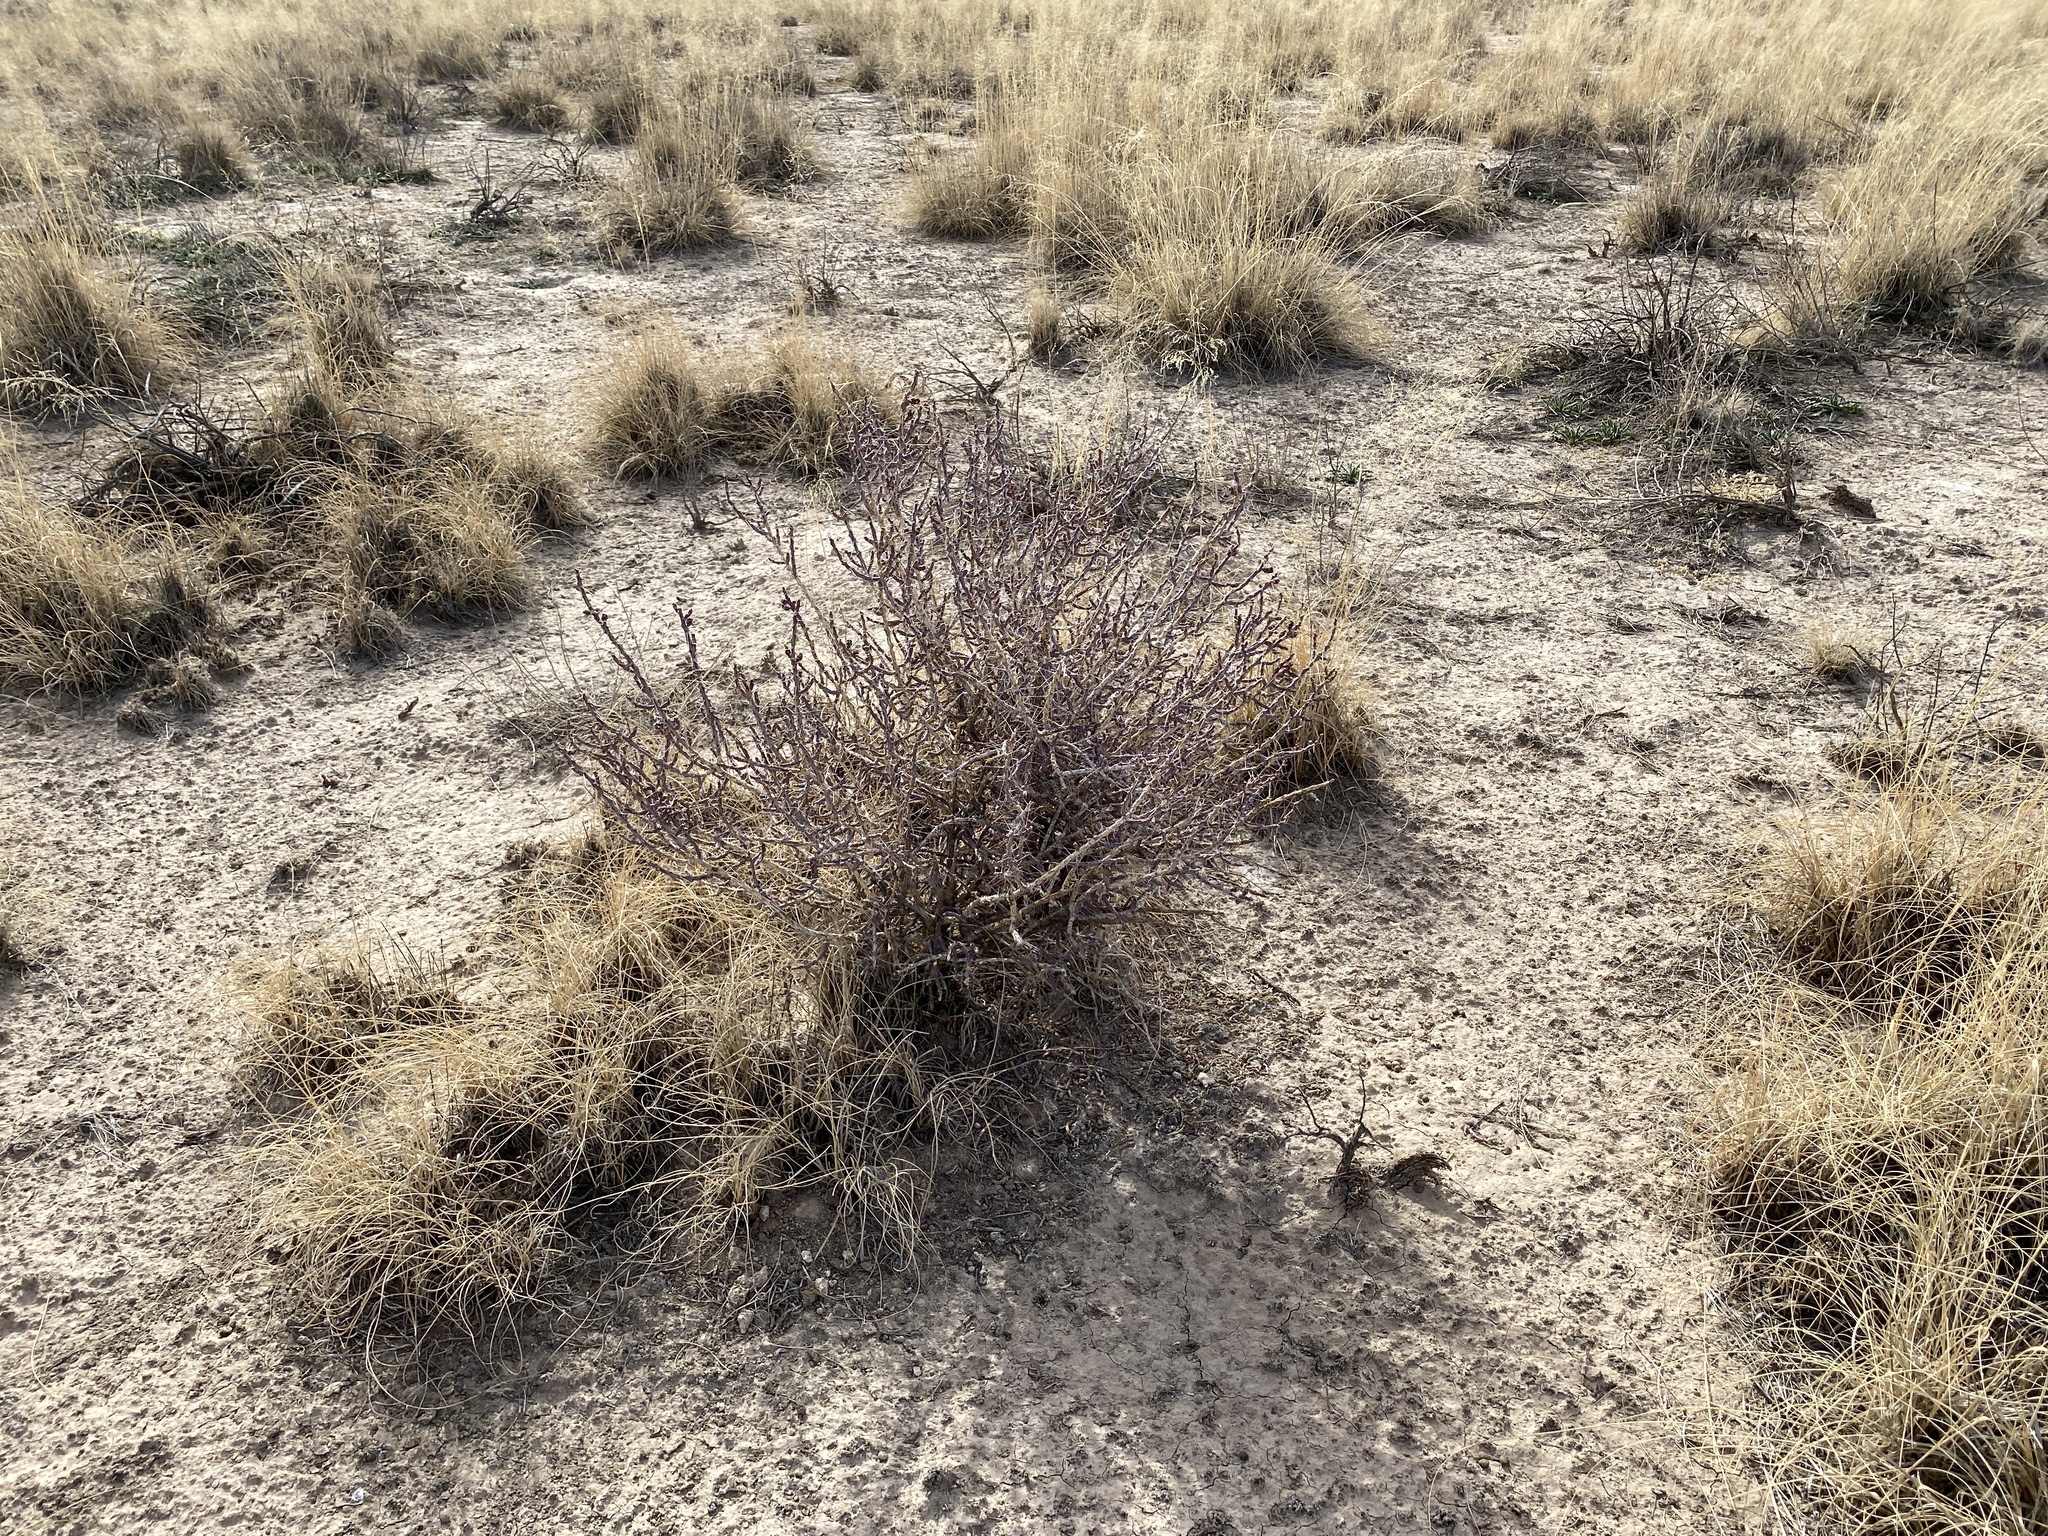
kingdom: Plantae
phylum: Tracheophyta
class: Magnoliopsida
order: Caryophyllales
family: Cactaceae
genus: Cylindropuntia
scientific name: Cylindropuntia leptocaulis
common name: Christmas cactus
